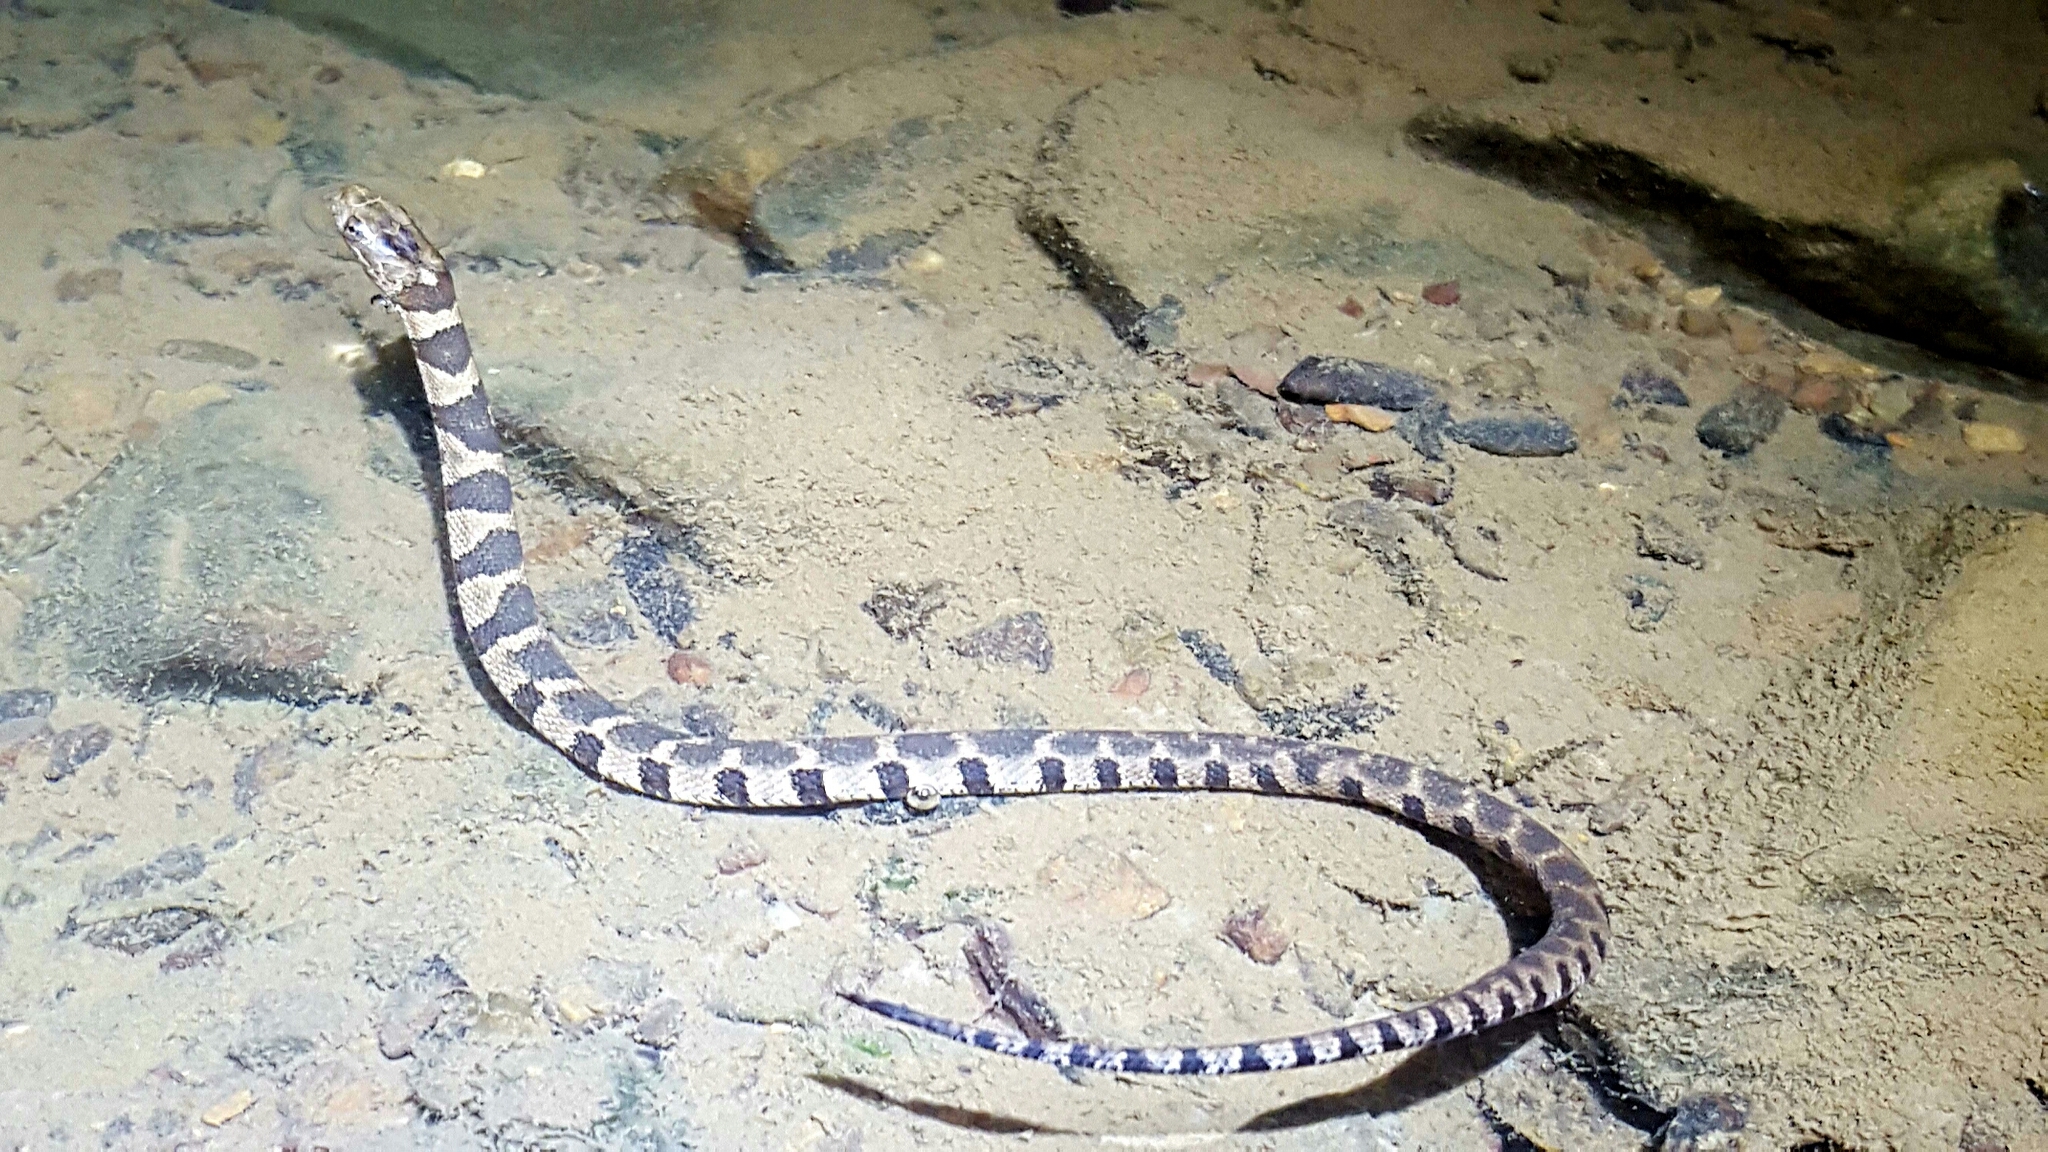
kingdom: Animalia
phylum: Chordata
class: Squamata
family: Colubridae
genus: Nerodia
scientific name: Nerodia sipedon
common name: Northern water snake
